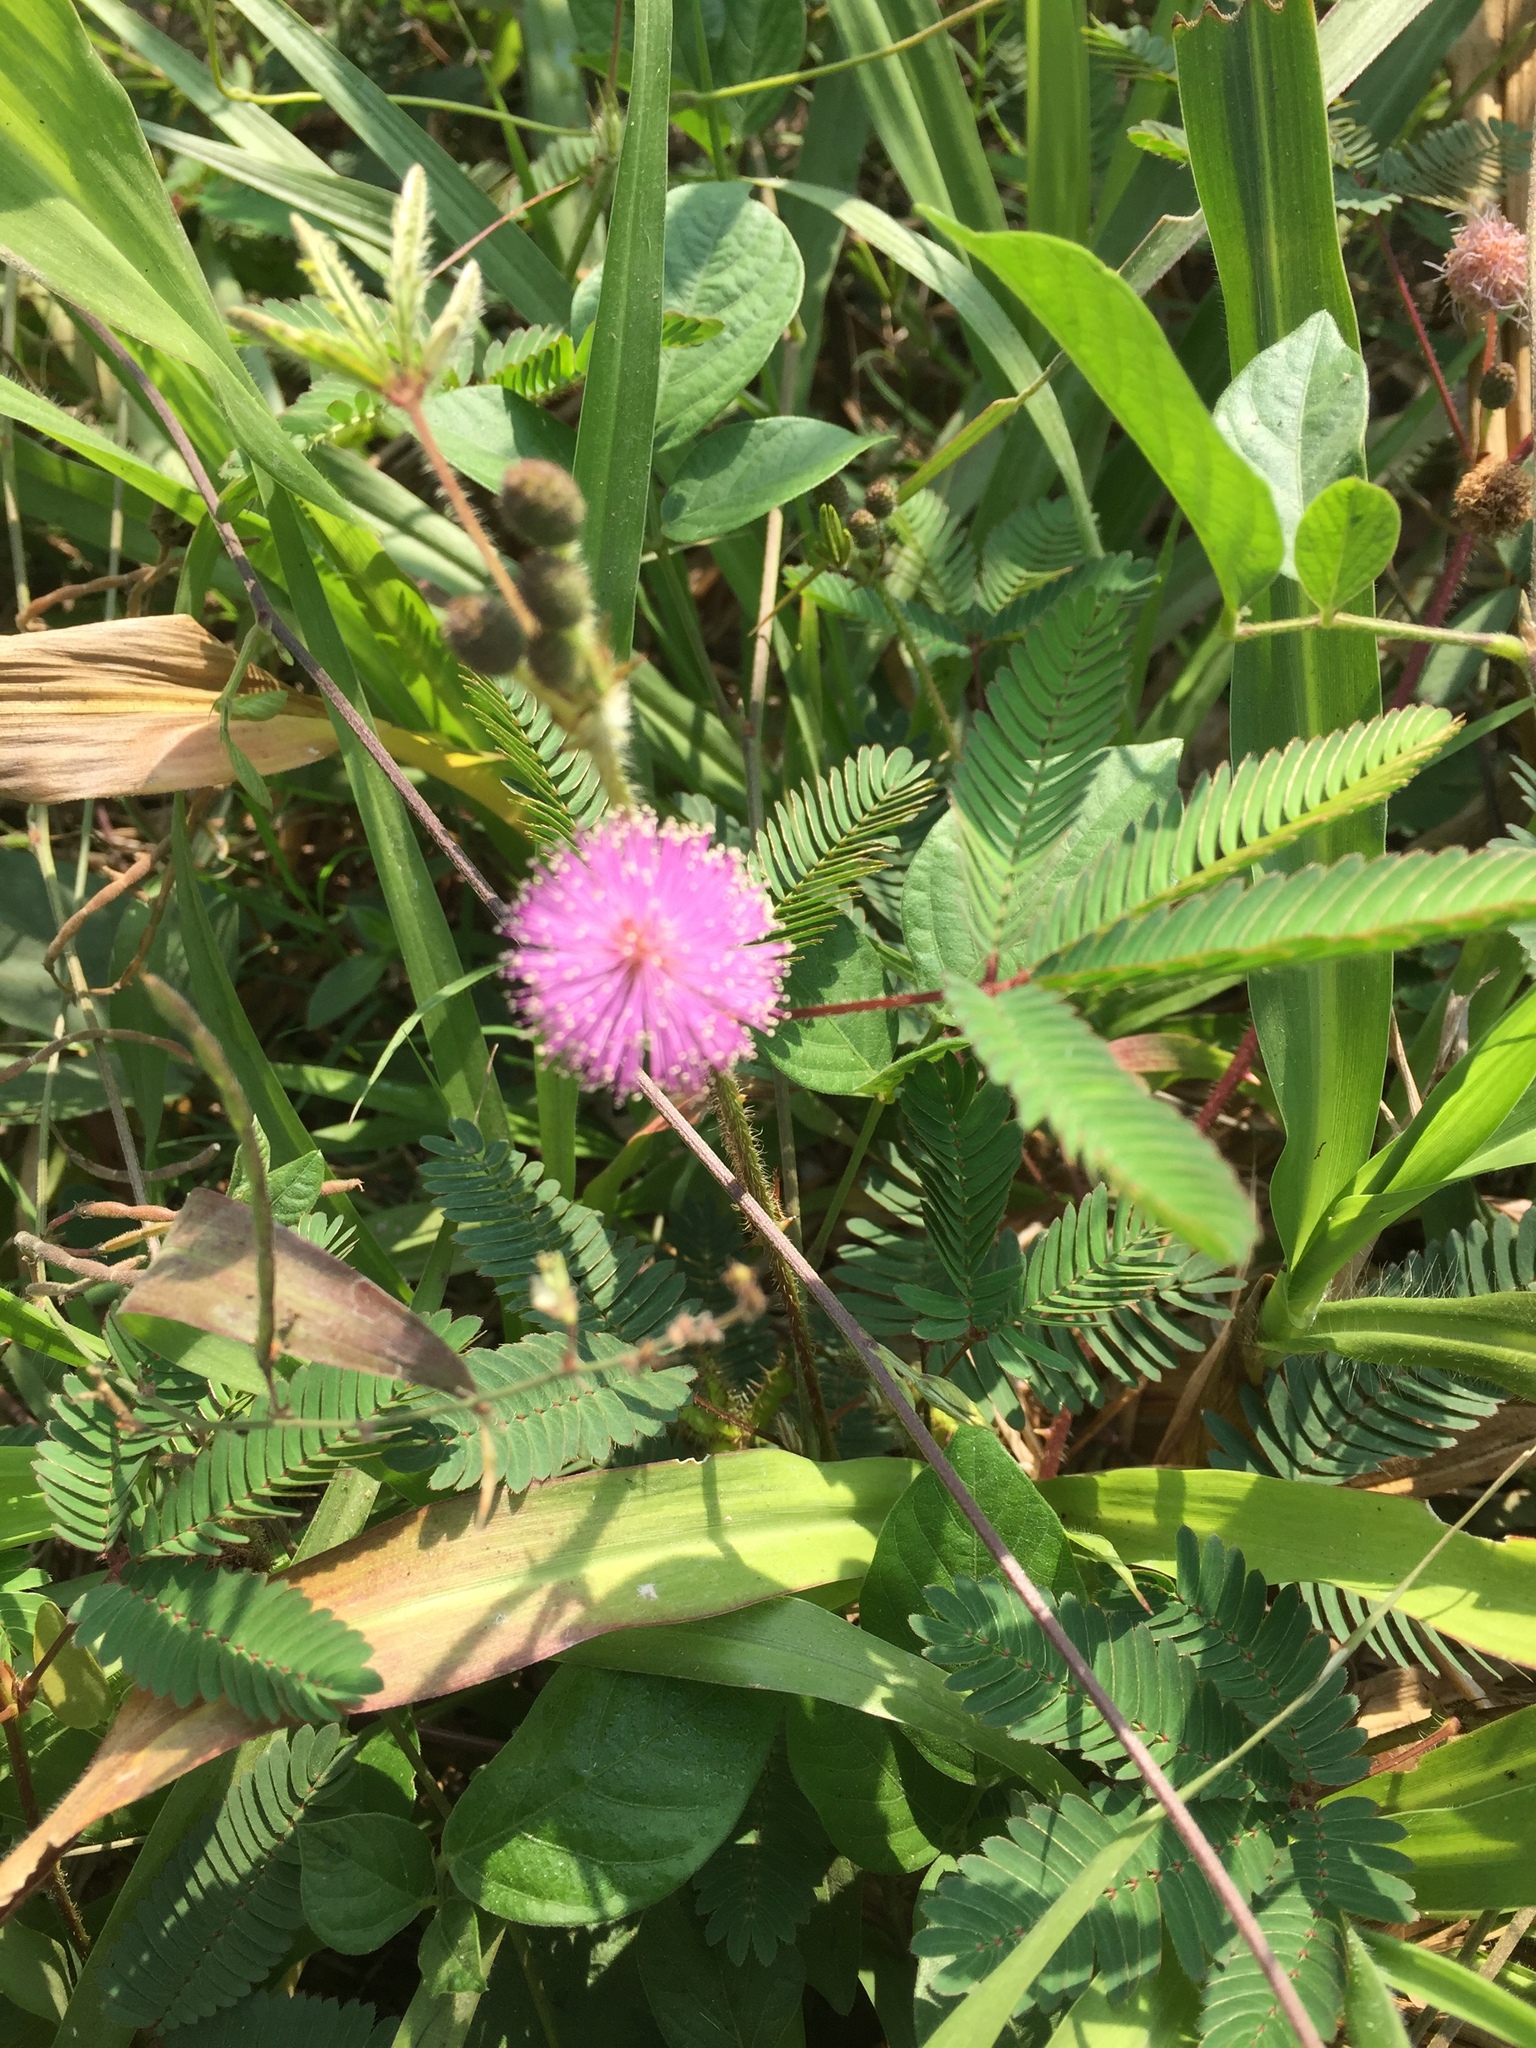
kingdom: Plantae
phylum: Tracheophyta
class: Magnoliopsida
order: Fabales
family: Fabaceae
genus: Mimosa
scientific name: Mimosa pudica
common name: Sensitive plant
